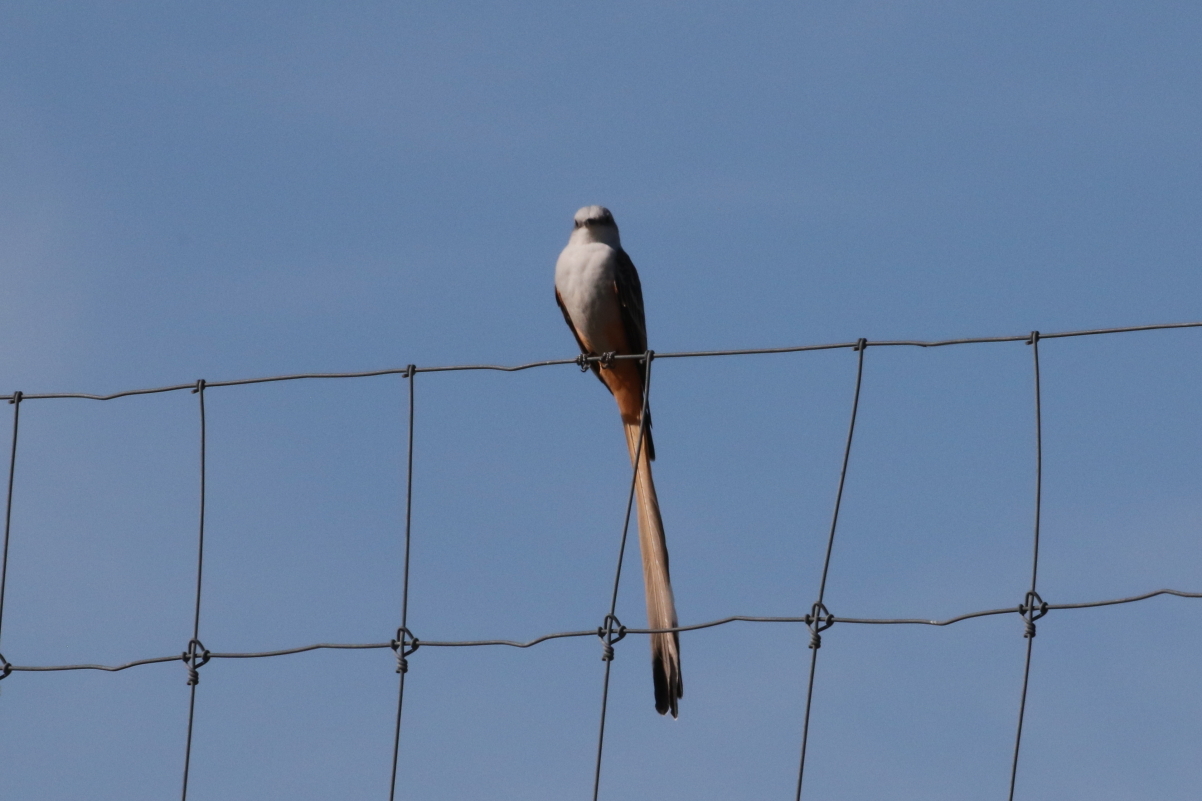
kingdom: Animalia
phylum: Chordata
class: Aves
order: Passeriformes
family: Tyrannidae
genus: Tyrannus
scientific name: Tyrannus forficatus
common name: Scissor-tailed flycatcher
